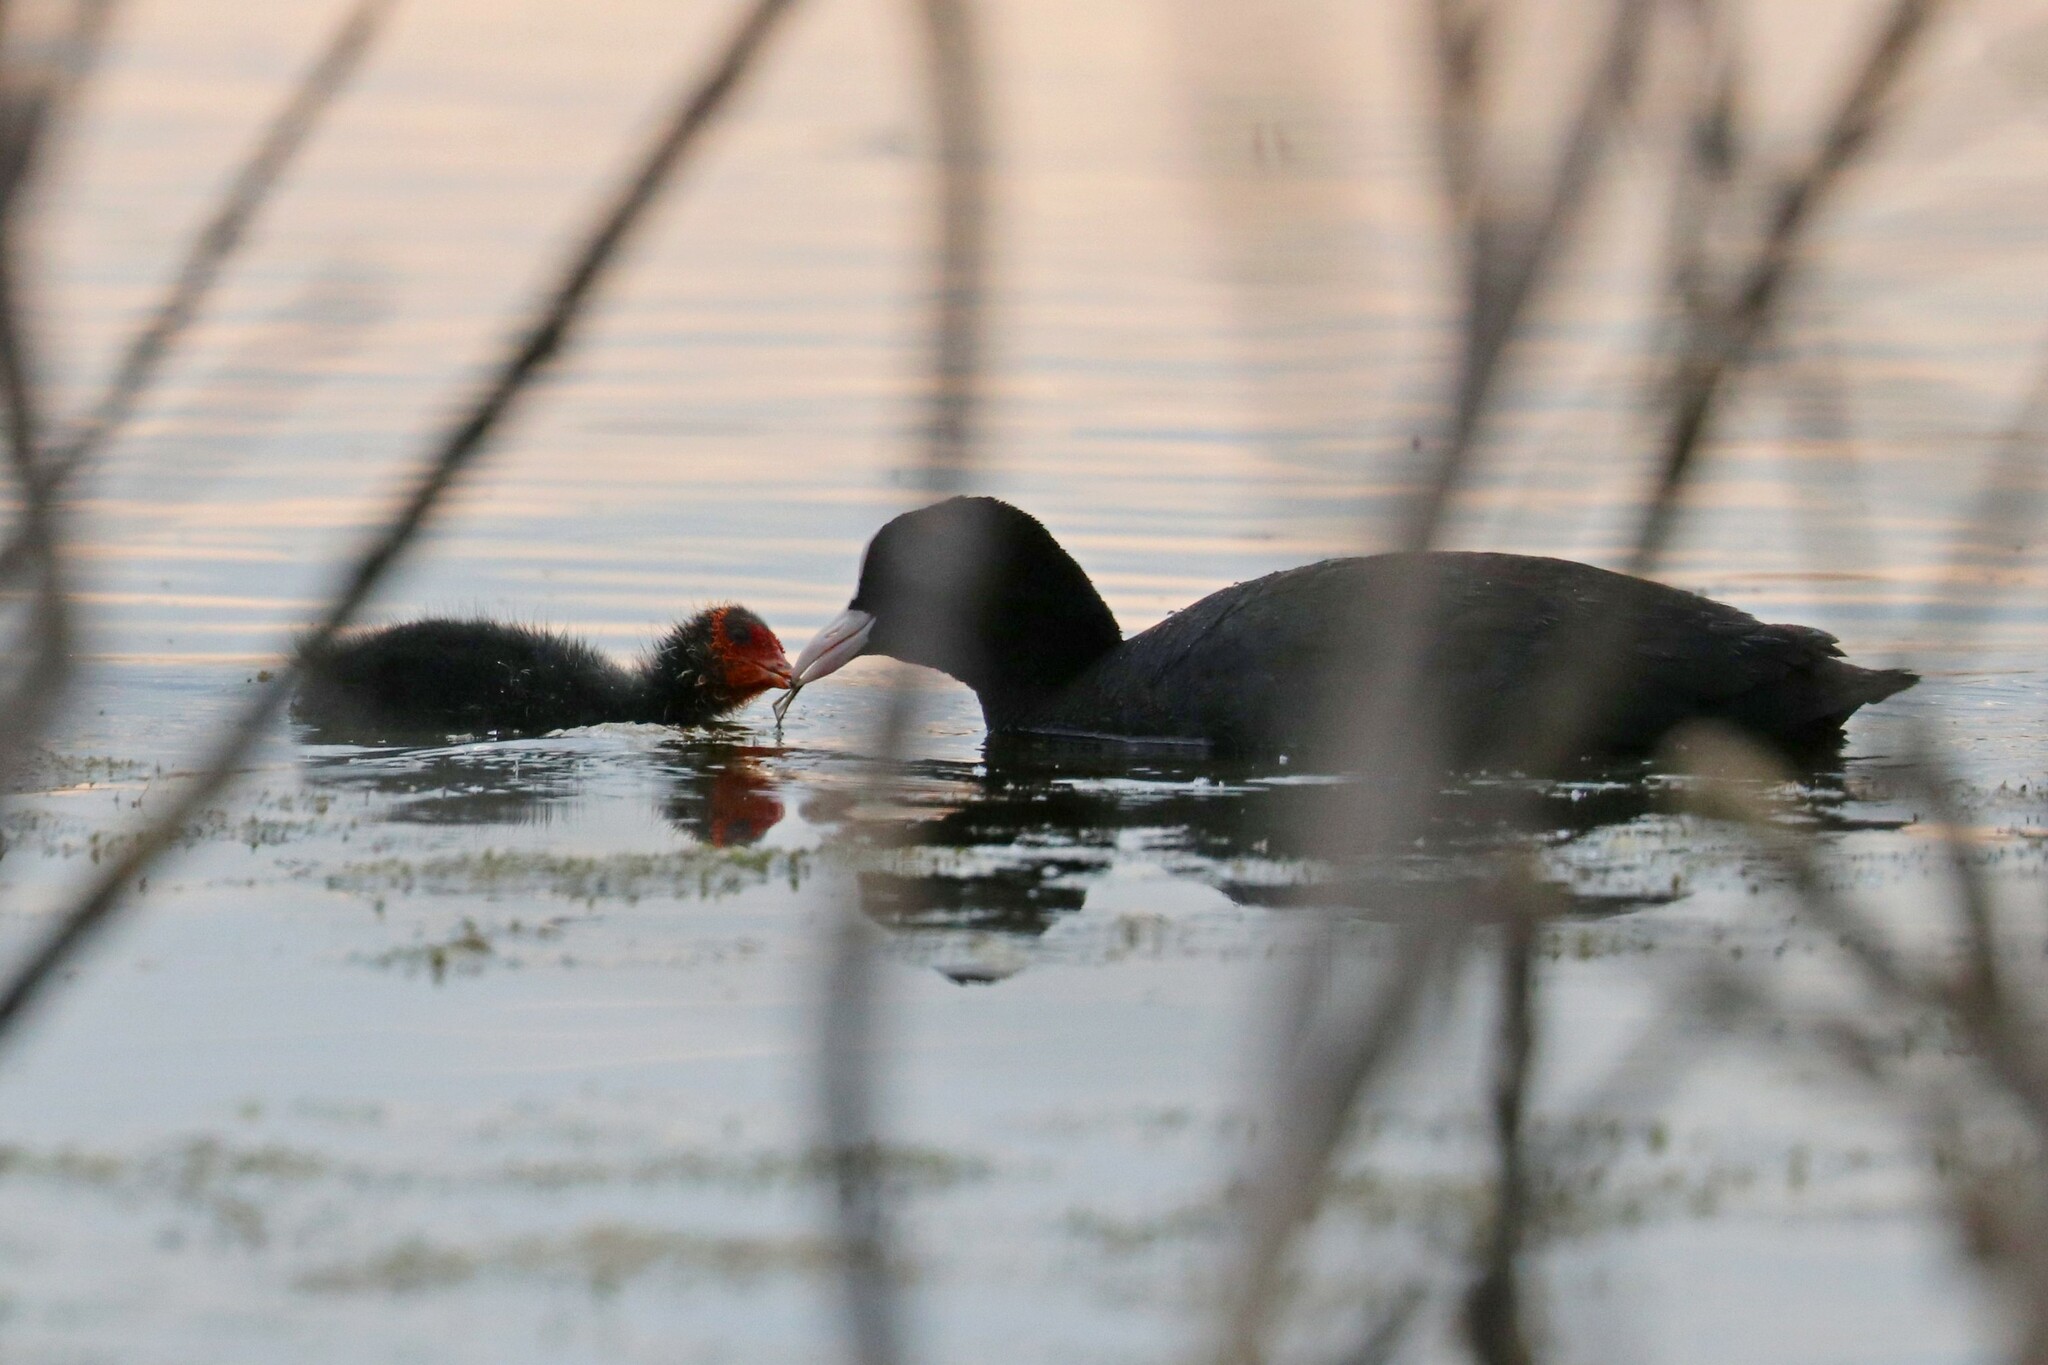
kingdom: Animalia
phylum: Chordata
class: Aves
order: Gruiformes
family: Rallidae
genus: Fulica
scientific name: Fulica atra
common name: Eurasian coot
